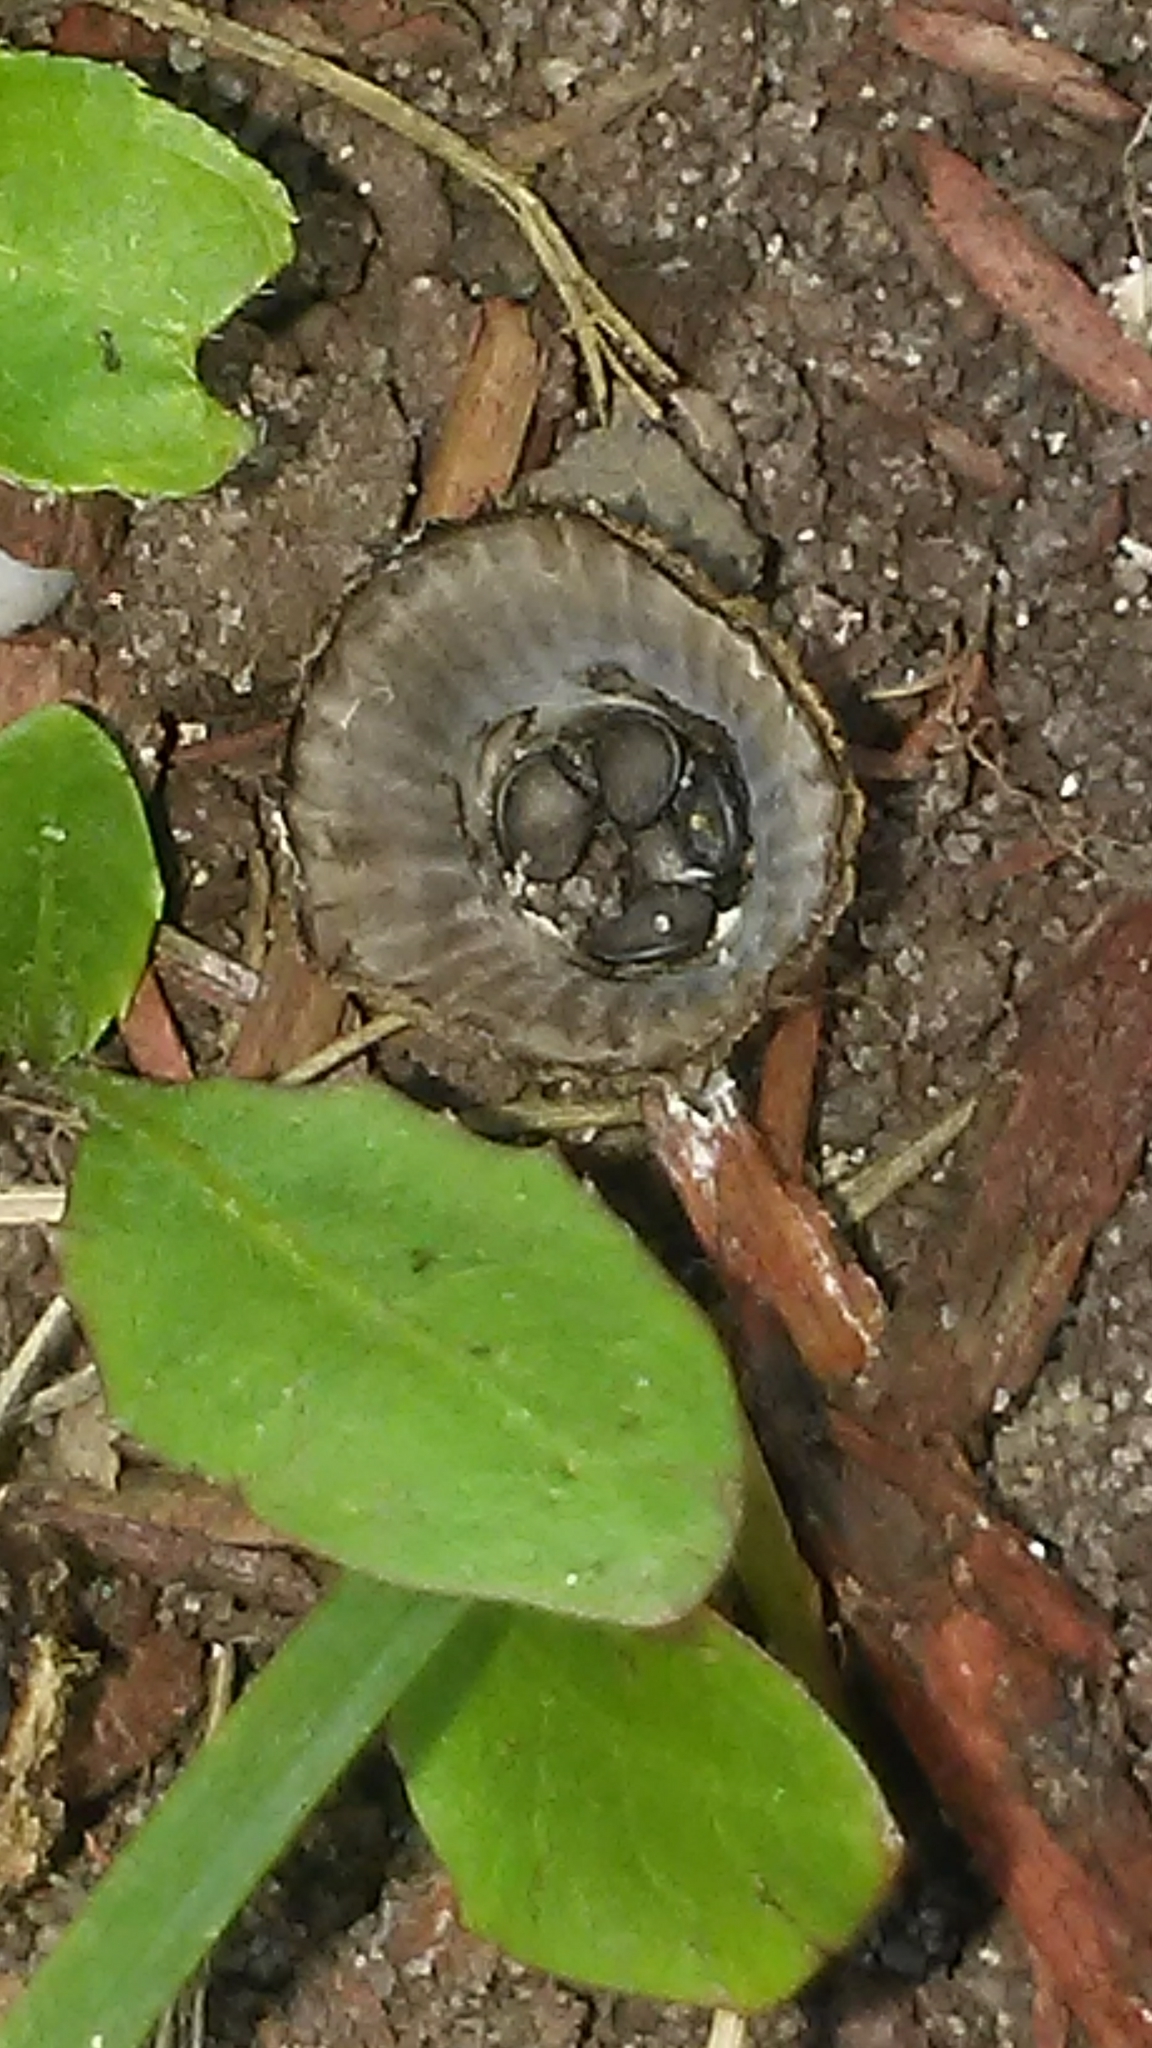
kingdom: Fungi
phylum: Basidiomycota
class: Agaricomycetes
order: Agaricales
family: Agaricaceae
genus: Cyathus
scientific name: Cyathus striatus
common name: Fluted bird's nest
